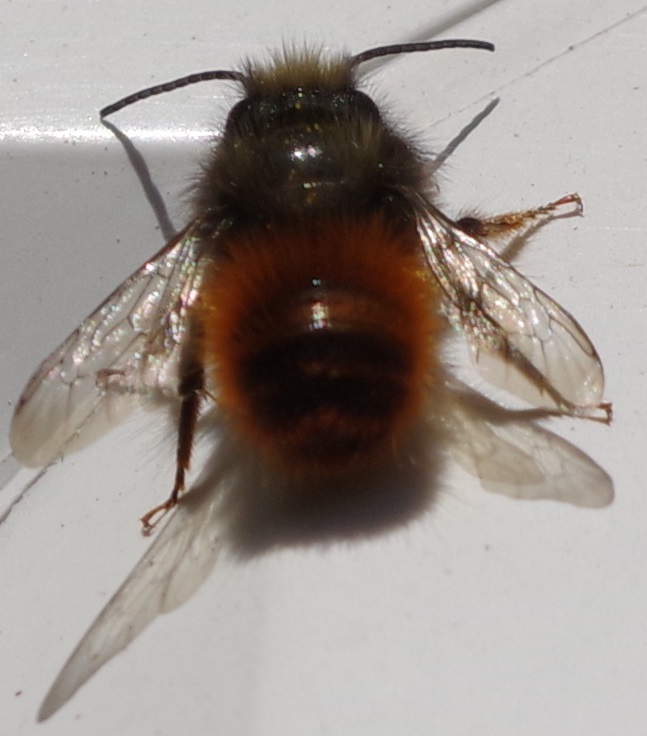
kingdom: Animalia
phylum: Arthropoda
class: Insecta
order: Hymenoptera
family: Megachilidae
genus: Osmia
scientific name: Osmia cornuta
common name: Mason bee
